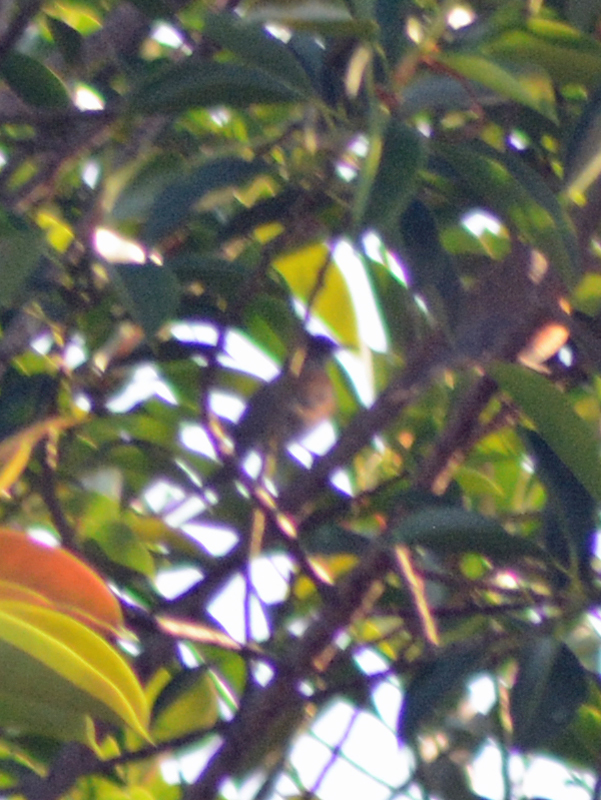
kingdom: Animalia
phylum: Chordata
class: Aves
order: Passeriformes
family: Turdidae
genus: Turdus
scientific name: Turdus rufopalliatus
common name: Rufous-backed robin
